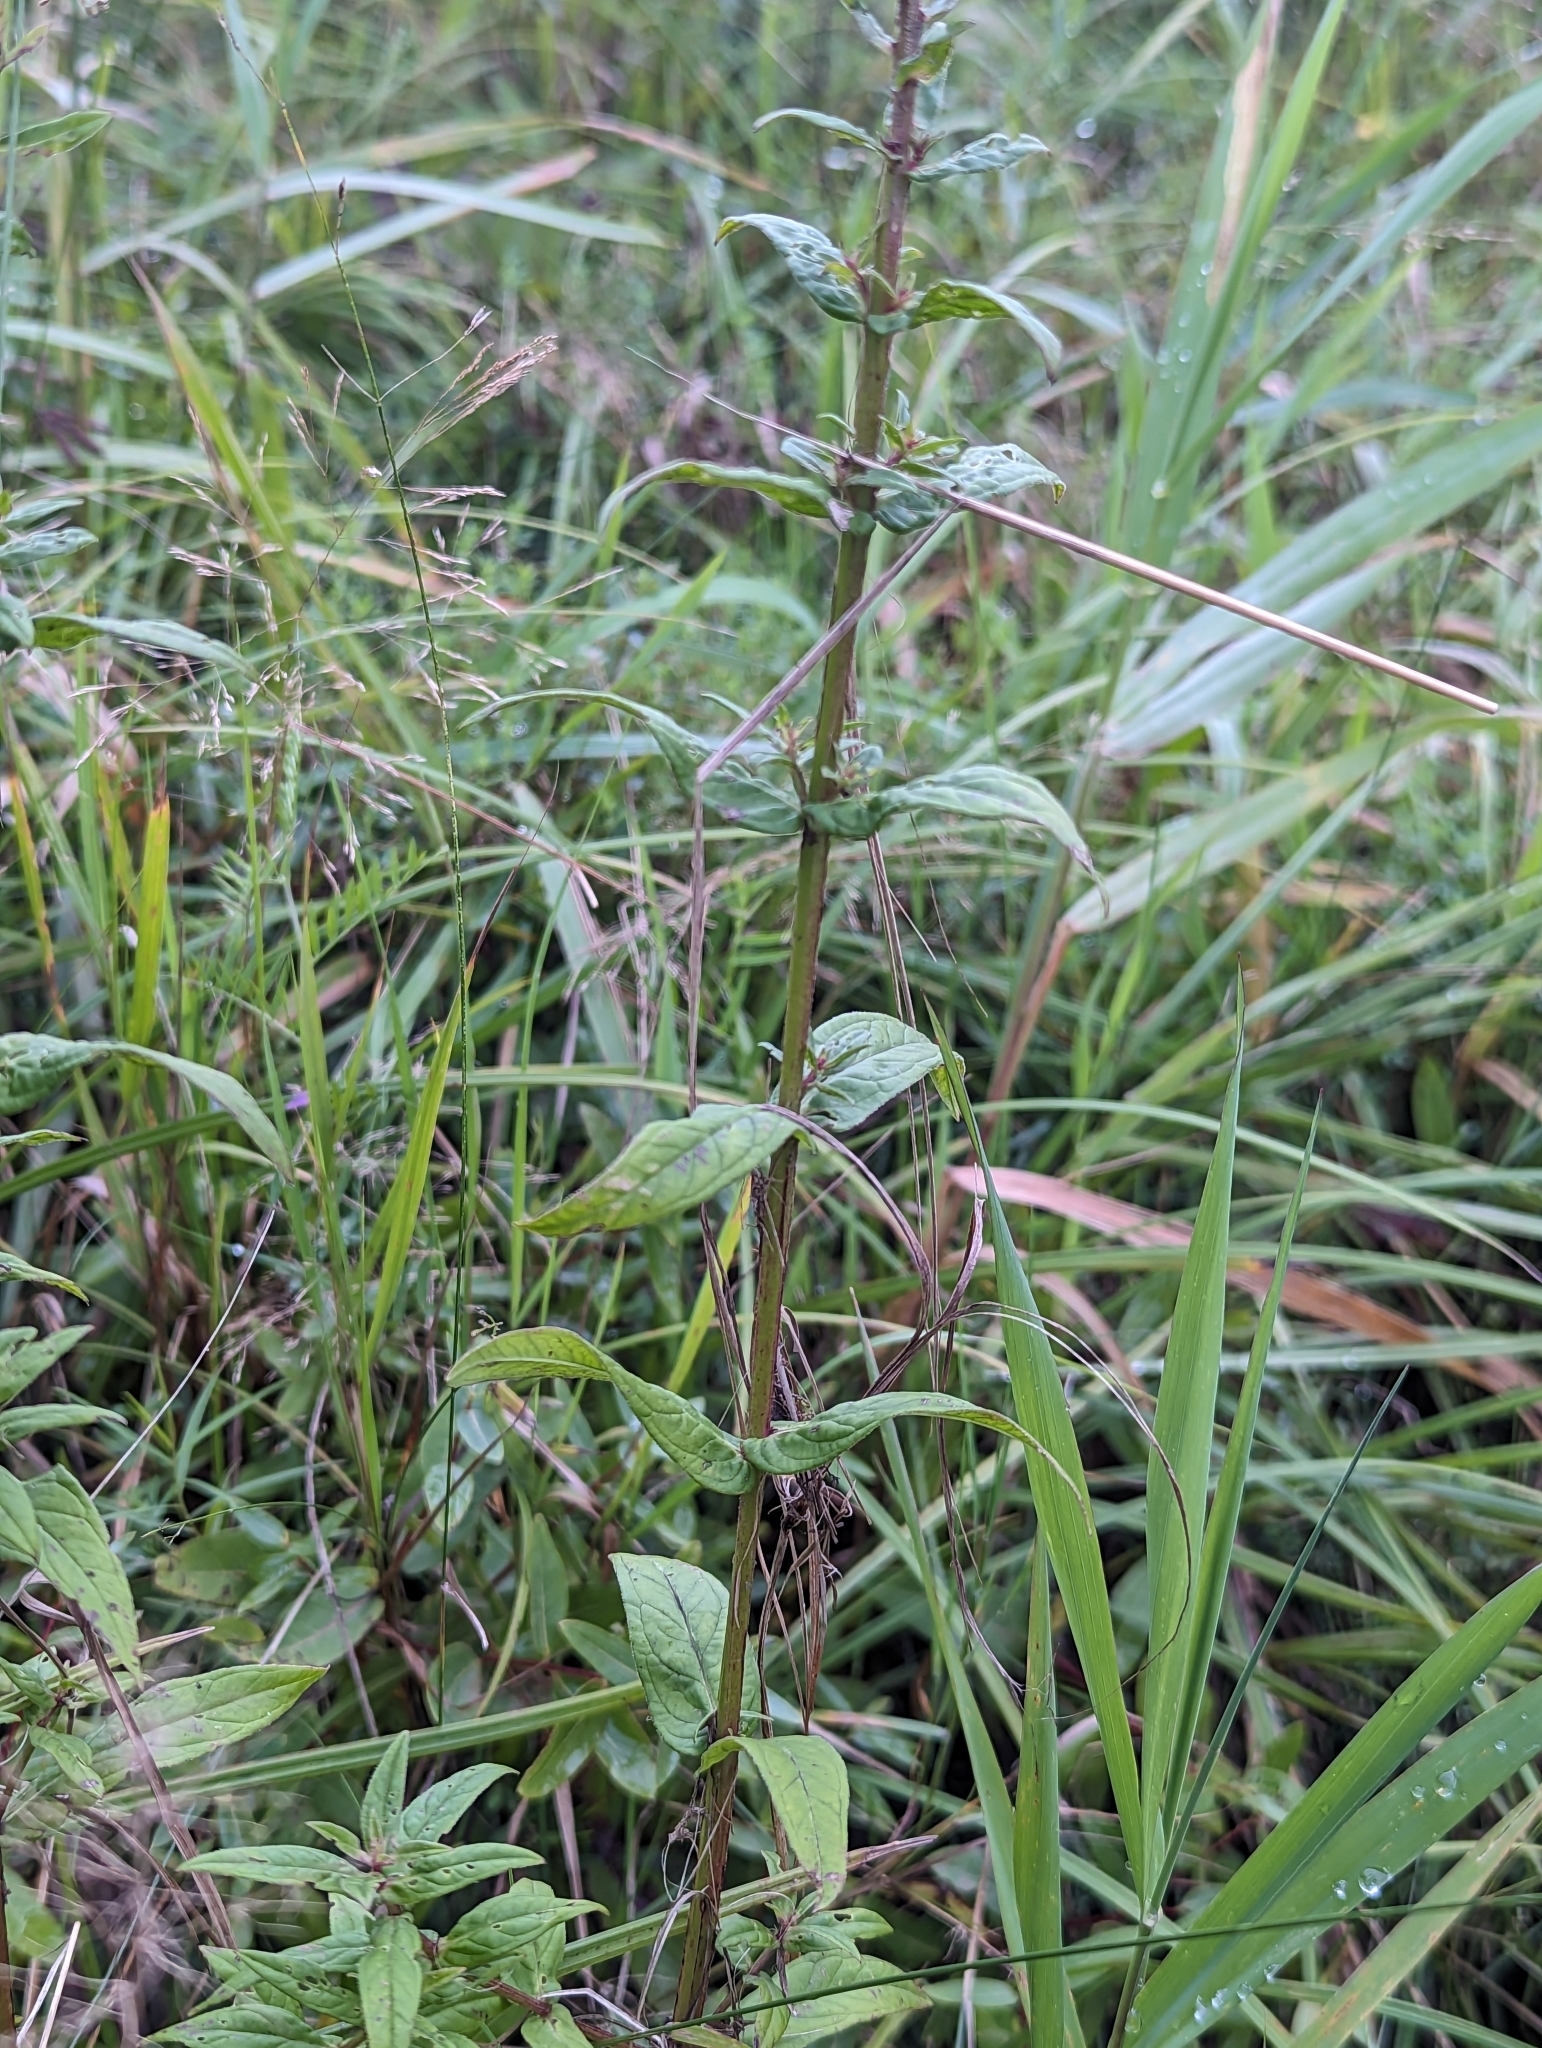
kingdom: Plantae
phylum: Tracheophyta
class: Magnoliopsida
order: Myrtales
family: Lythraceae
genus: Lythrum
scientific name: Lythrum salicaria
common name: Purple loosestrife
